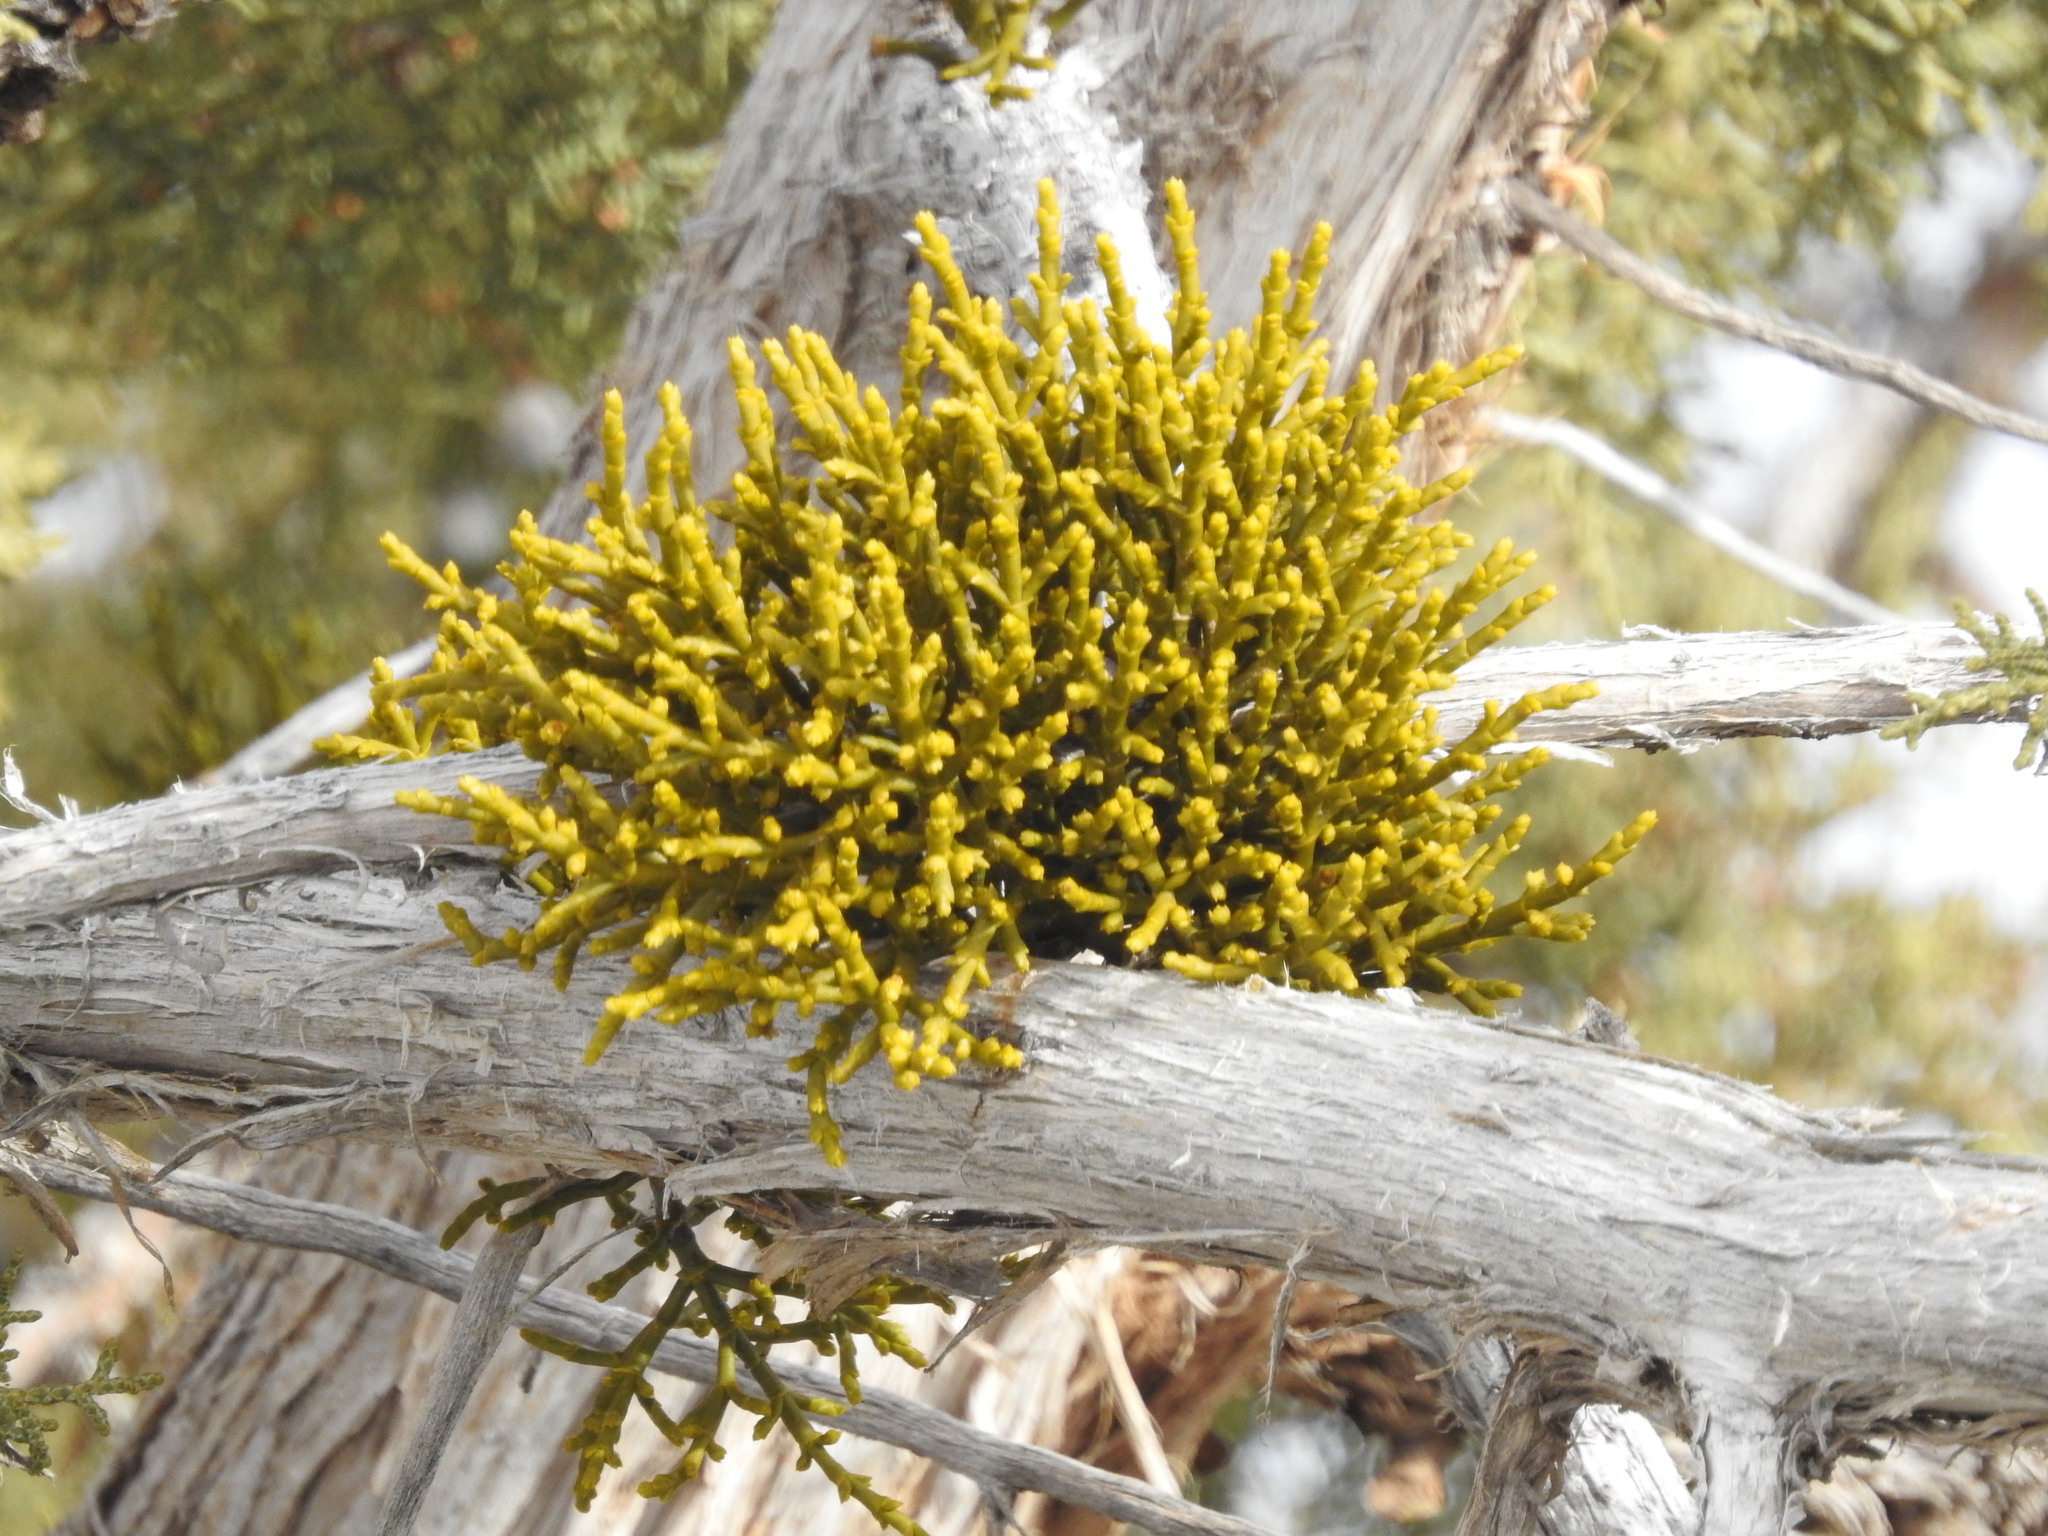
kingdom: Plantae
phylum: Tracheophyta
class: Magnoliopsida
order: Santalales
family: Viscaceae
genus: Phoradendron
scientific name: Phoradendron juniperinum
